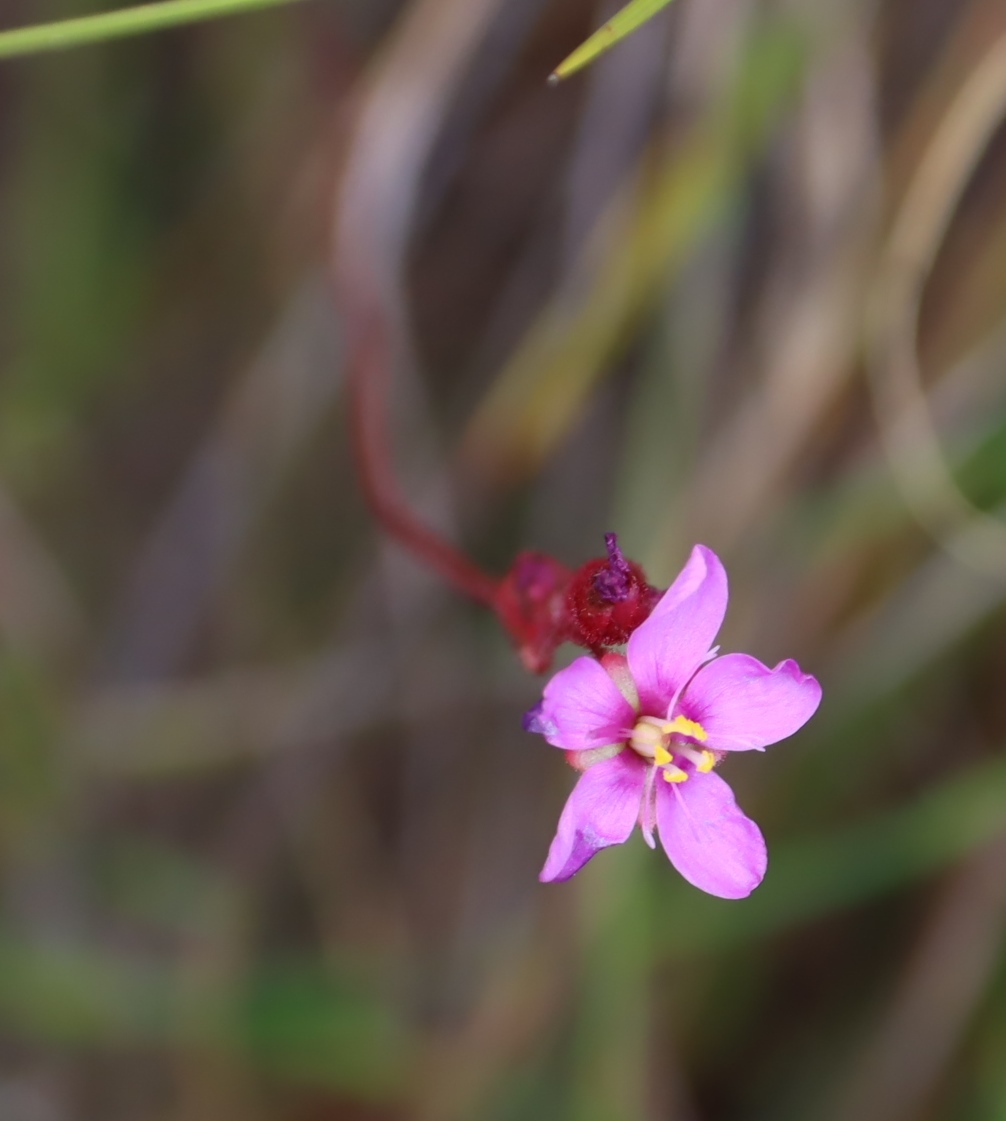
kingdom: Plantae
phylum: Tracheophyta
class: Magnoliopsida
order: Caryophyllales
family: Droseraceae
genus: Drosera
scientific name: Drosera aliciae
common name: Alice sundew
